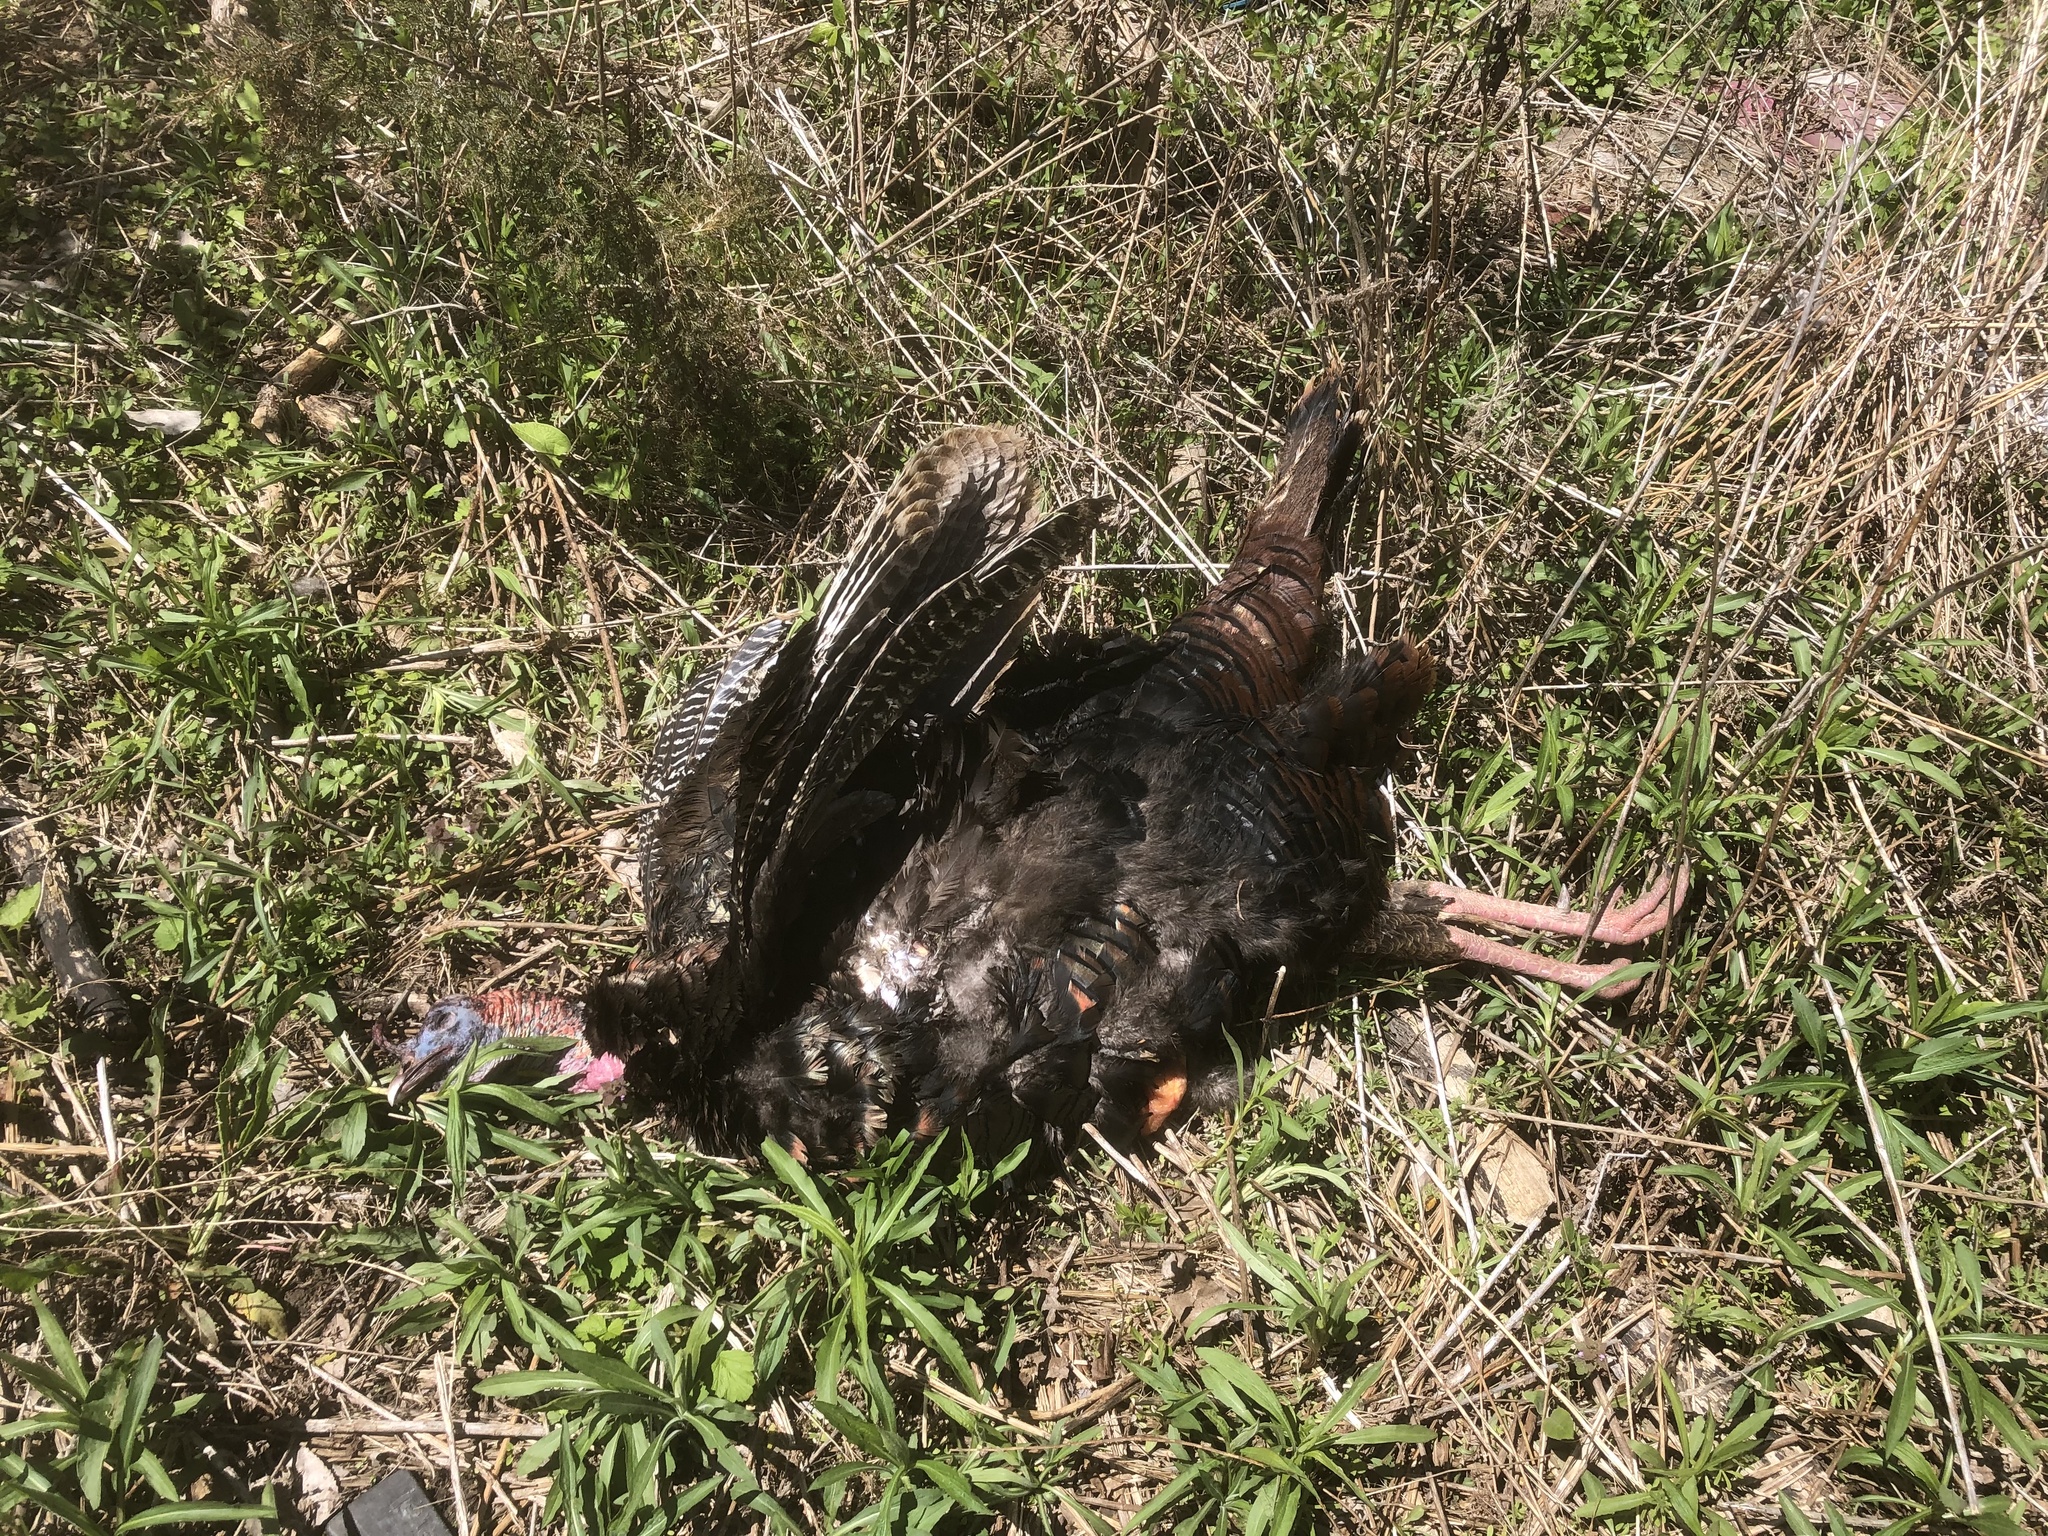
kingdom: Animalia
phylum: Chordata
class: Aves
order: Galliformes
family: Phasianidae
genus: Meleagris
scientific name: Meleagris gallopavo
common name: Wild turkey
